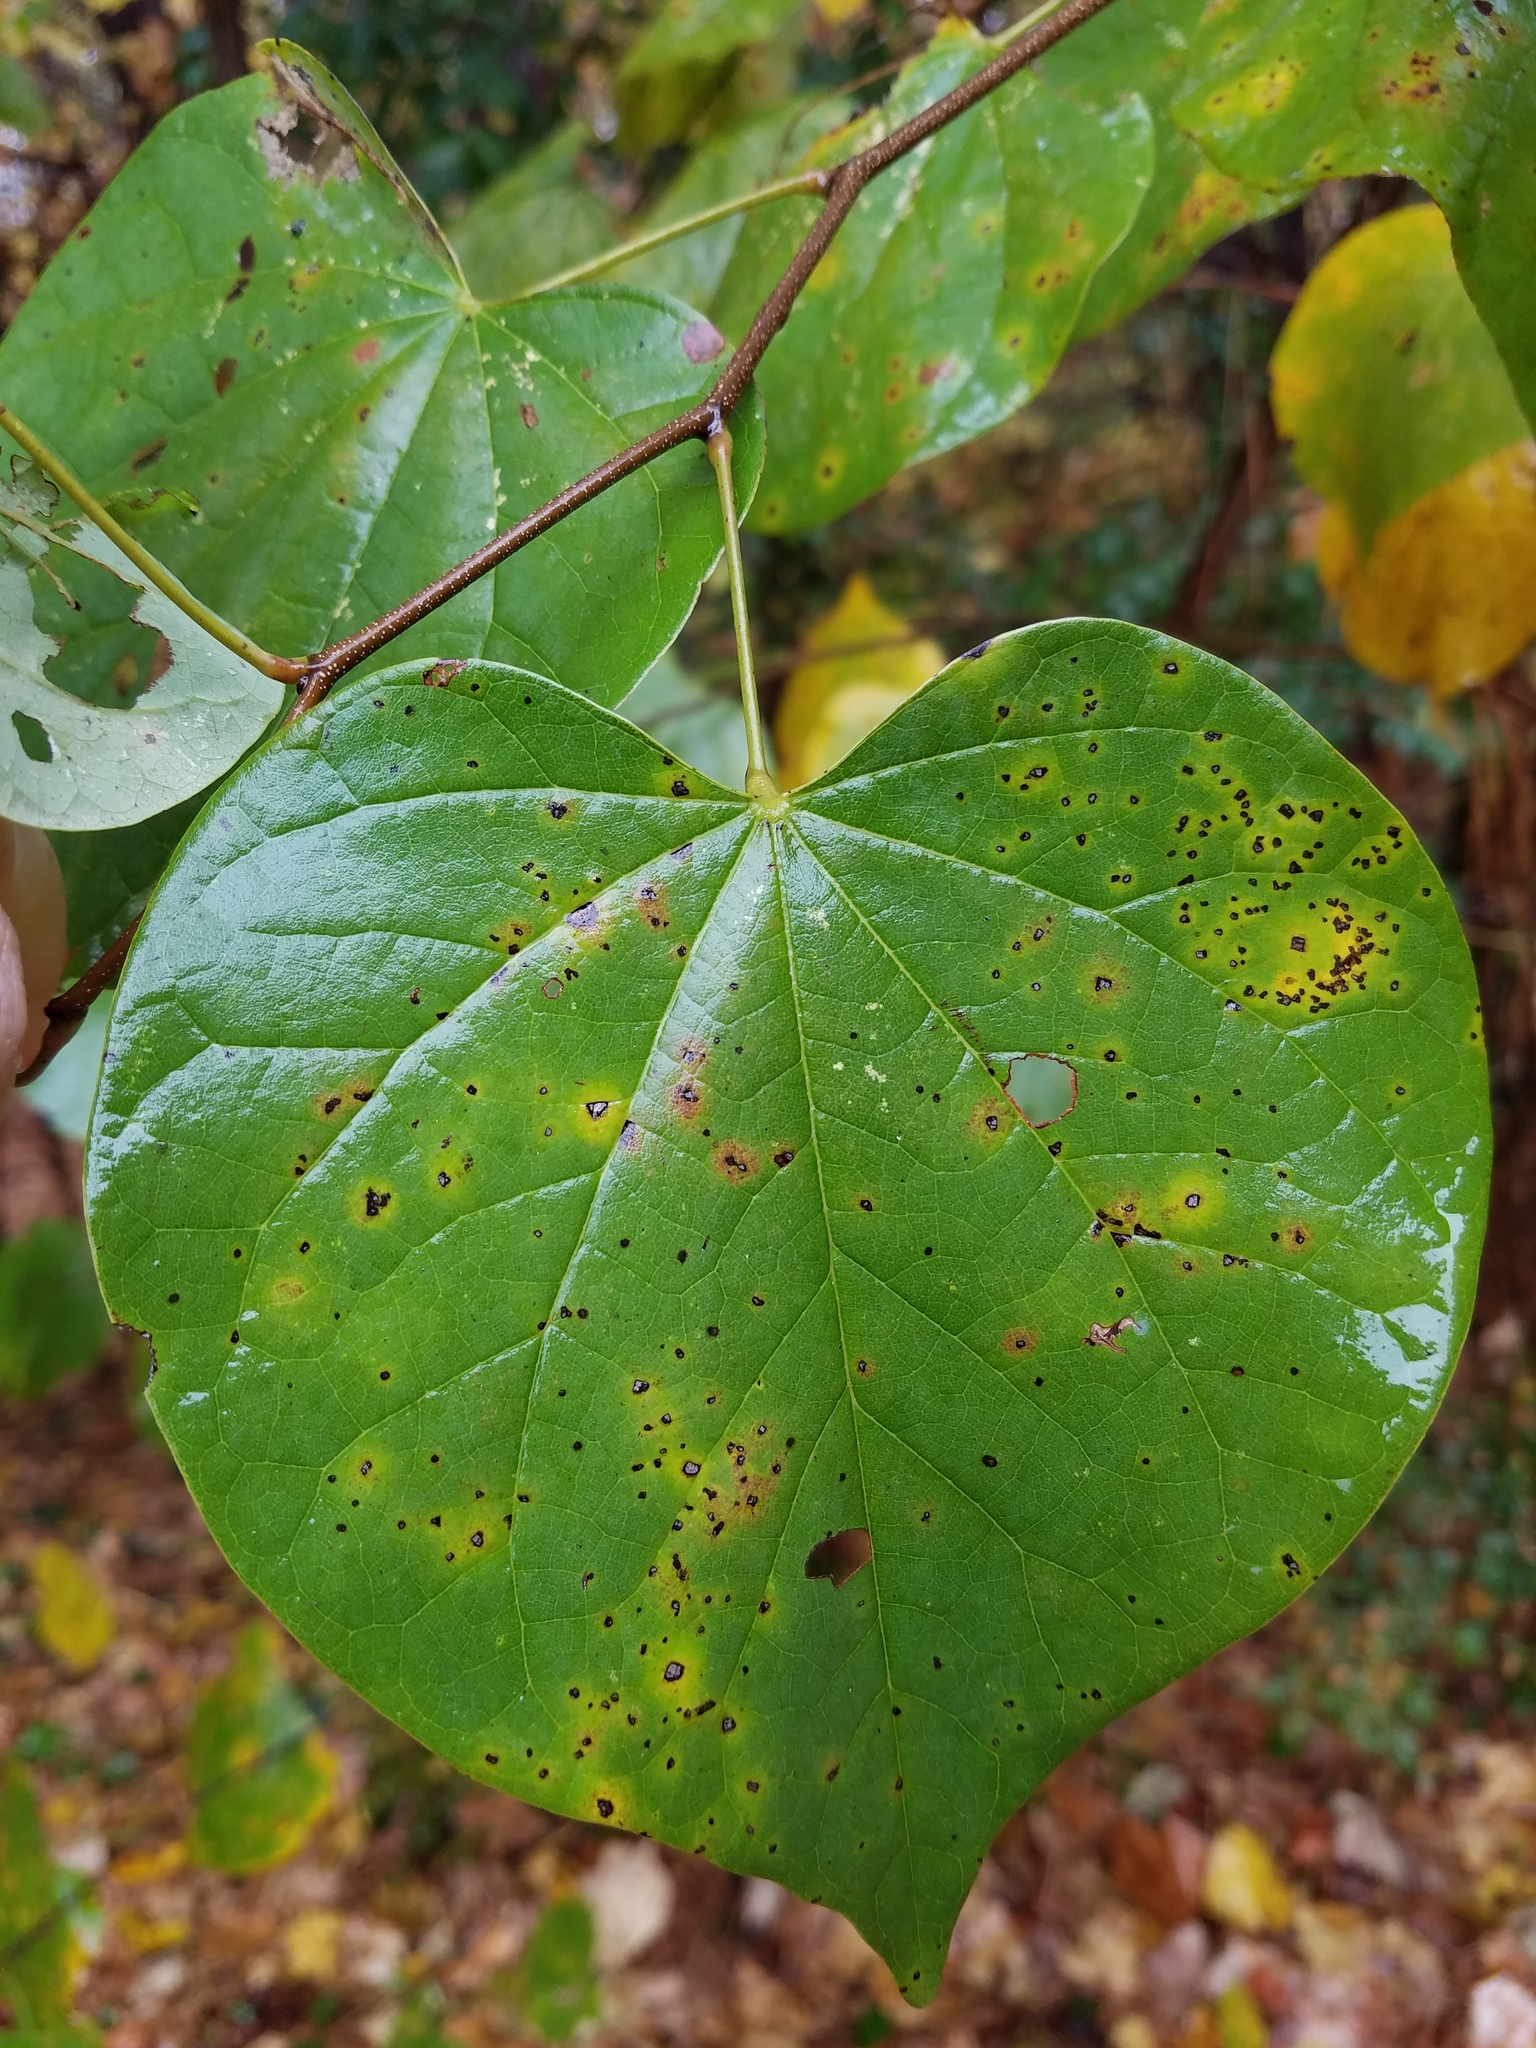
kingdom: Plantae
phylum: Tracheophyta
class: Magnoliopsida
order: Fabales
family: Fabaceae
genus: Cercis
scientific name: Cercis canadensis
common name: Eastern redbud
